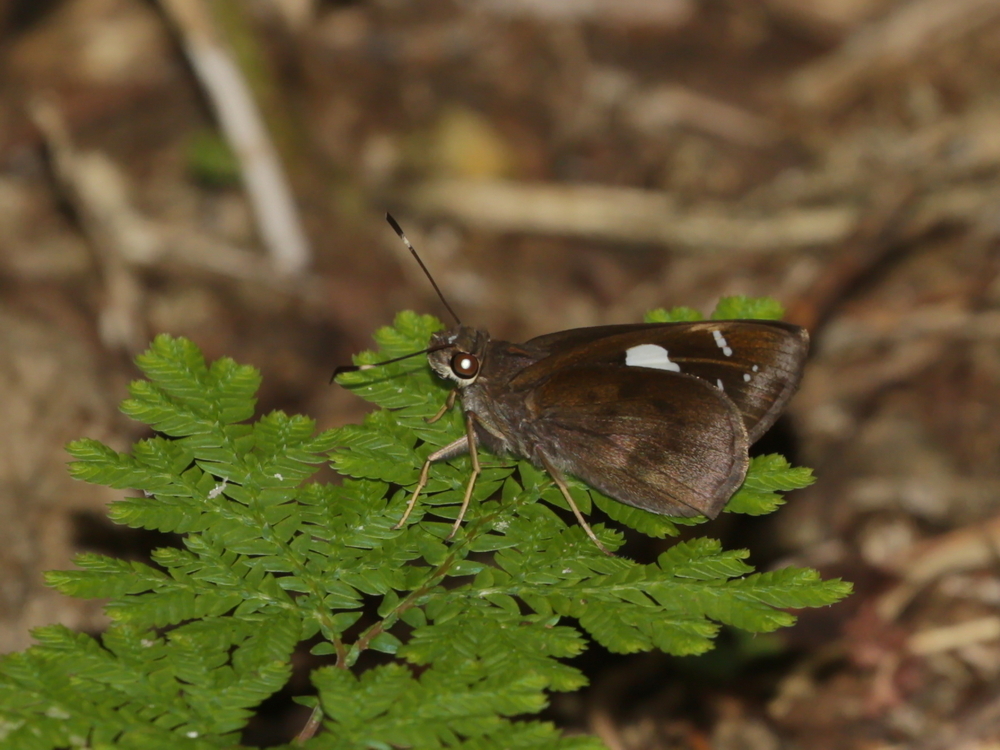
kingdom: Animalia
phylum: Arthropoda
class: Insecta
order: Lepidoptera
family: Hesperiidae
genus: Notocrypta
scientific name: Notocrypta curvifascia
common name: Restricted demon
